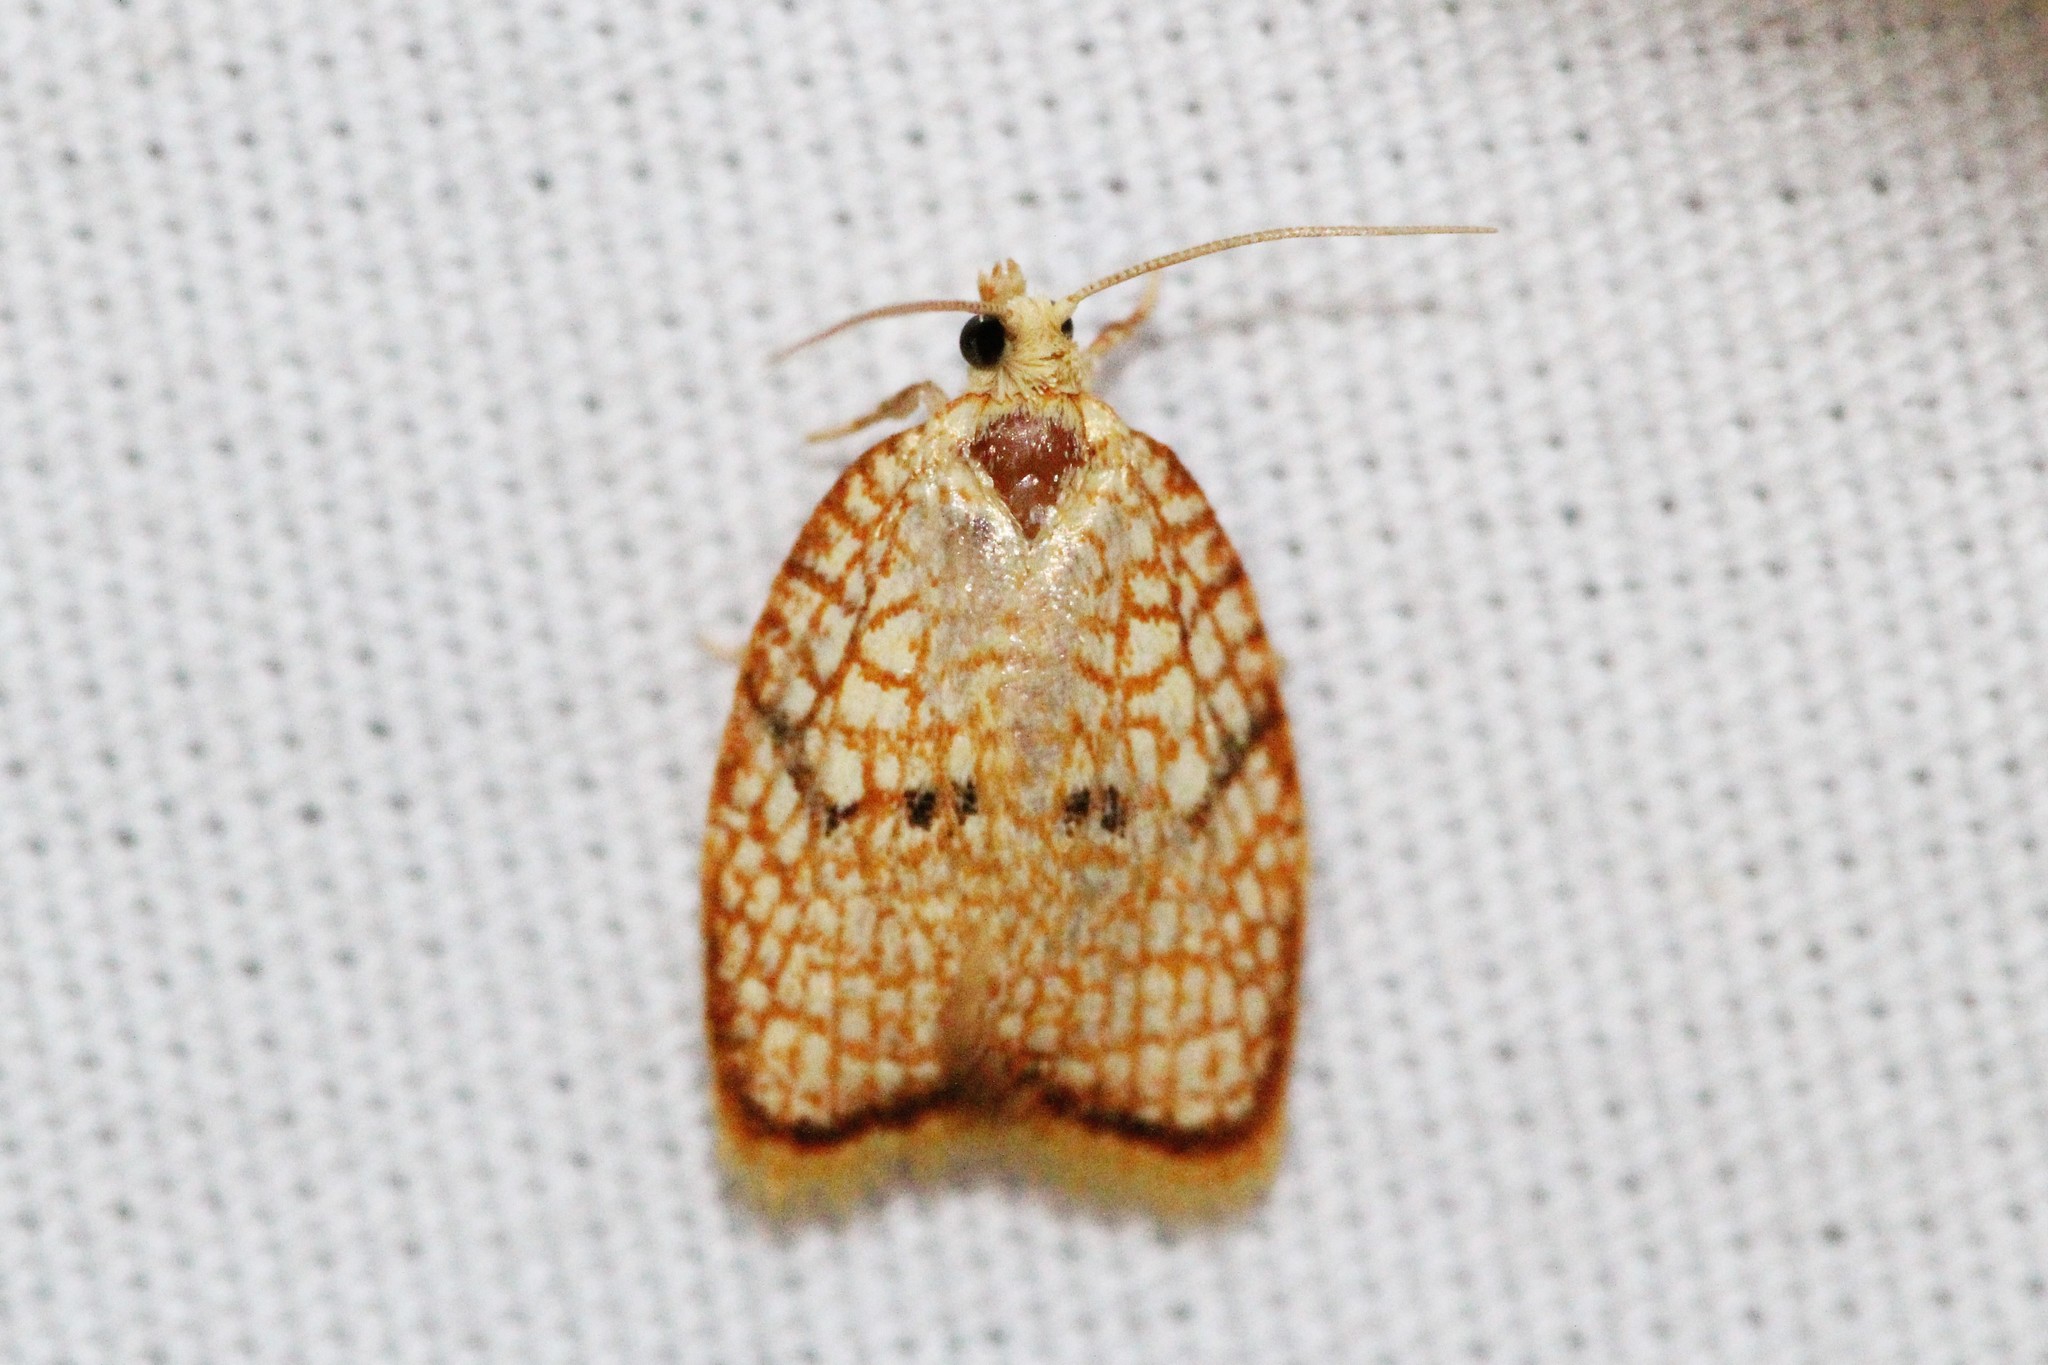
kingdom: Animalia
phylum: Arthropoda
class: Insecta
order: Lepidoptera
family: Tortricidae
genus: Acleris
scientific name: Acleris forsskaleana
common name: Maple button
